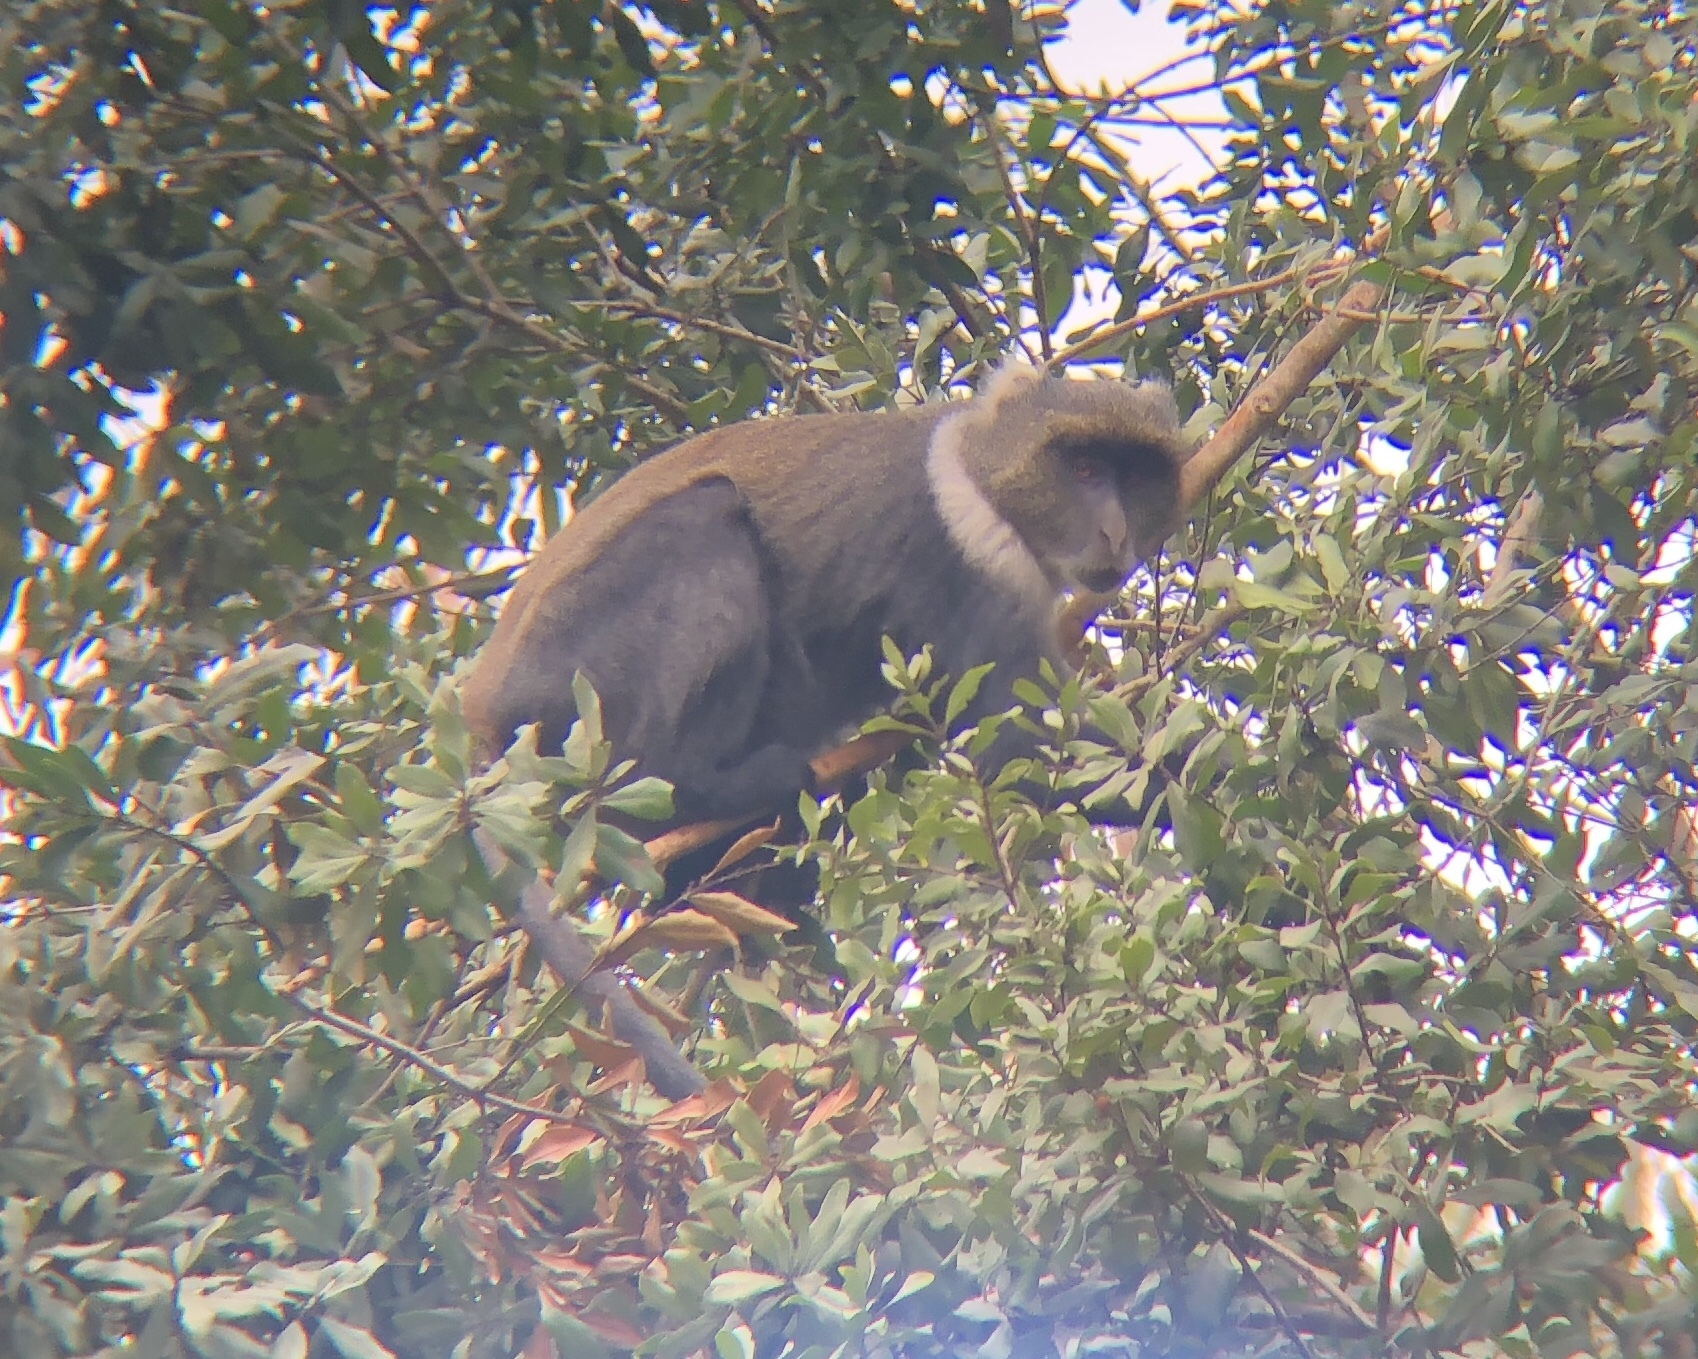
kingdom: Animalia
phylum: Chordata
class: Mammalia
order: Primates
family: Cercopithecidae
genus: Cercopithecus
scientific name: Cercopithecus mitis
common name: Blue monkey
